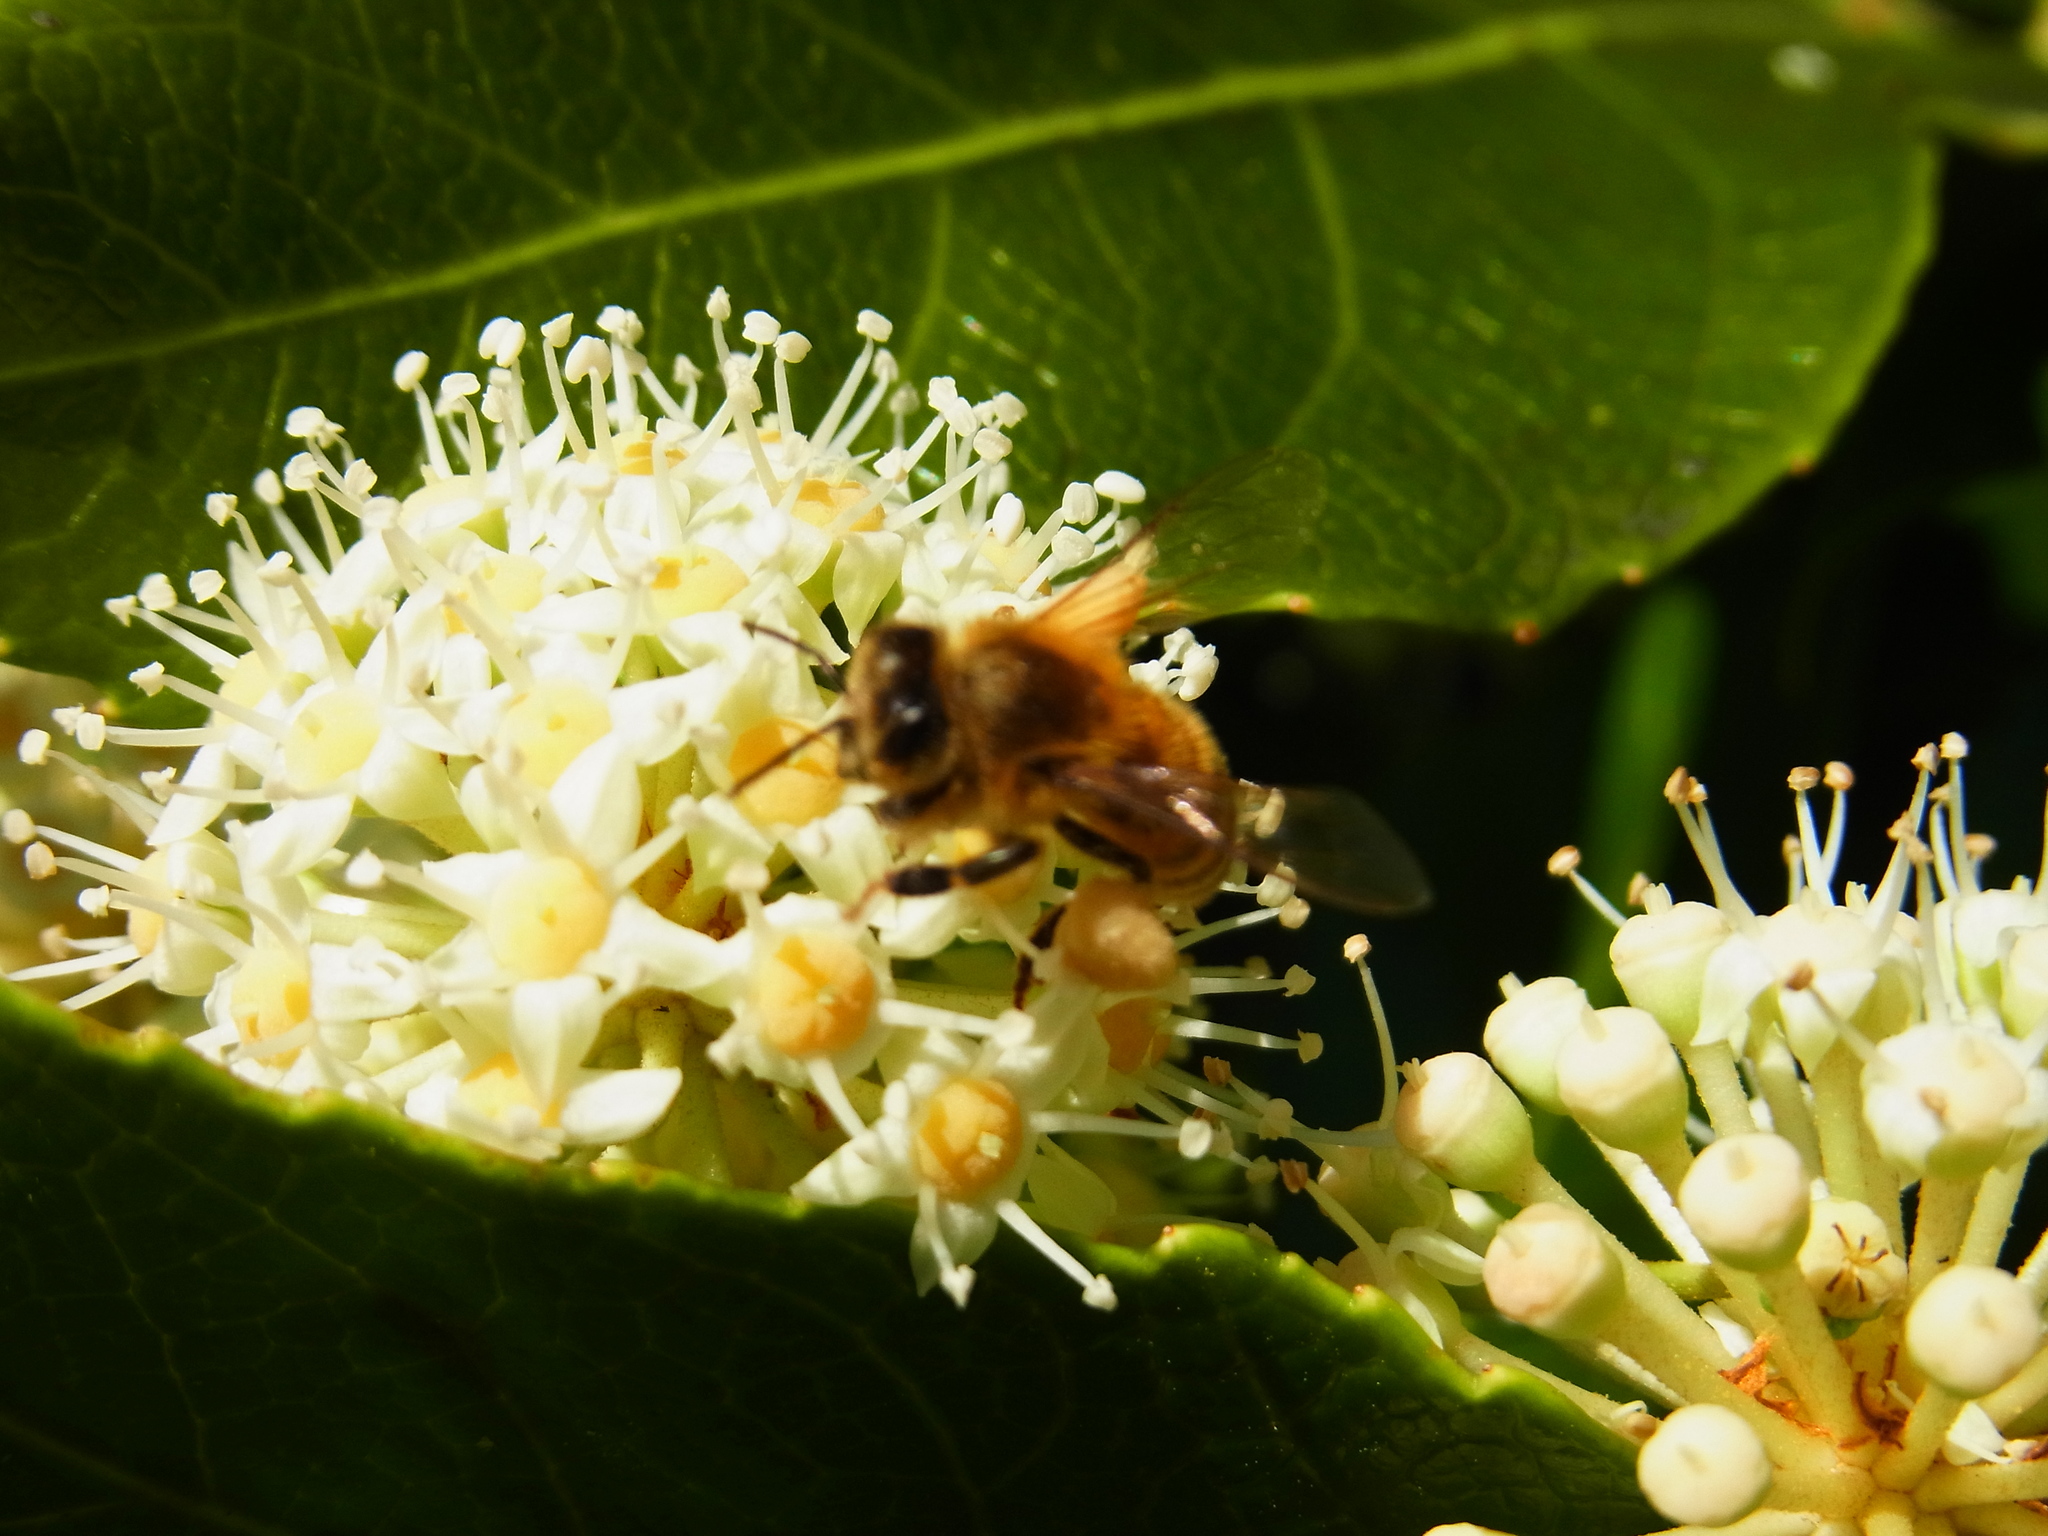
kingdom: Animalia
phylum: Arthropoda
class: Insecta
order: Hymenoptera
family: Apidae
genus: Apis
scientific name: Apis mellifera
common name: Honey bee
